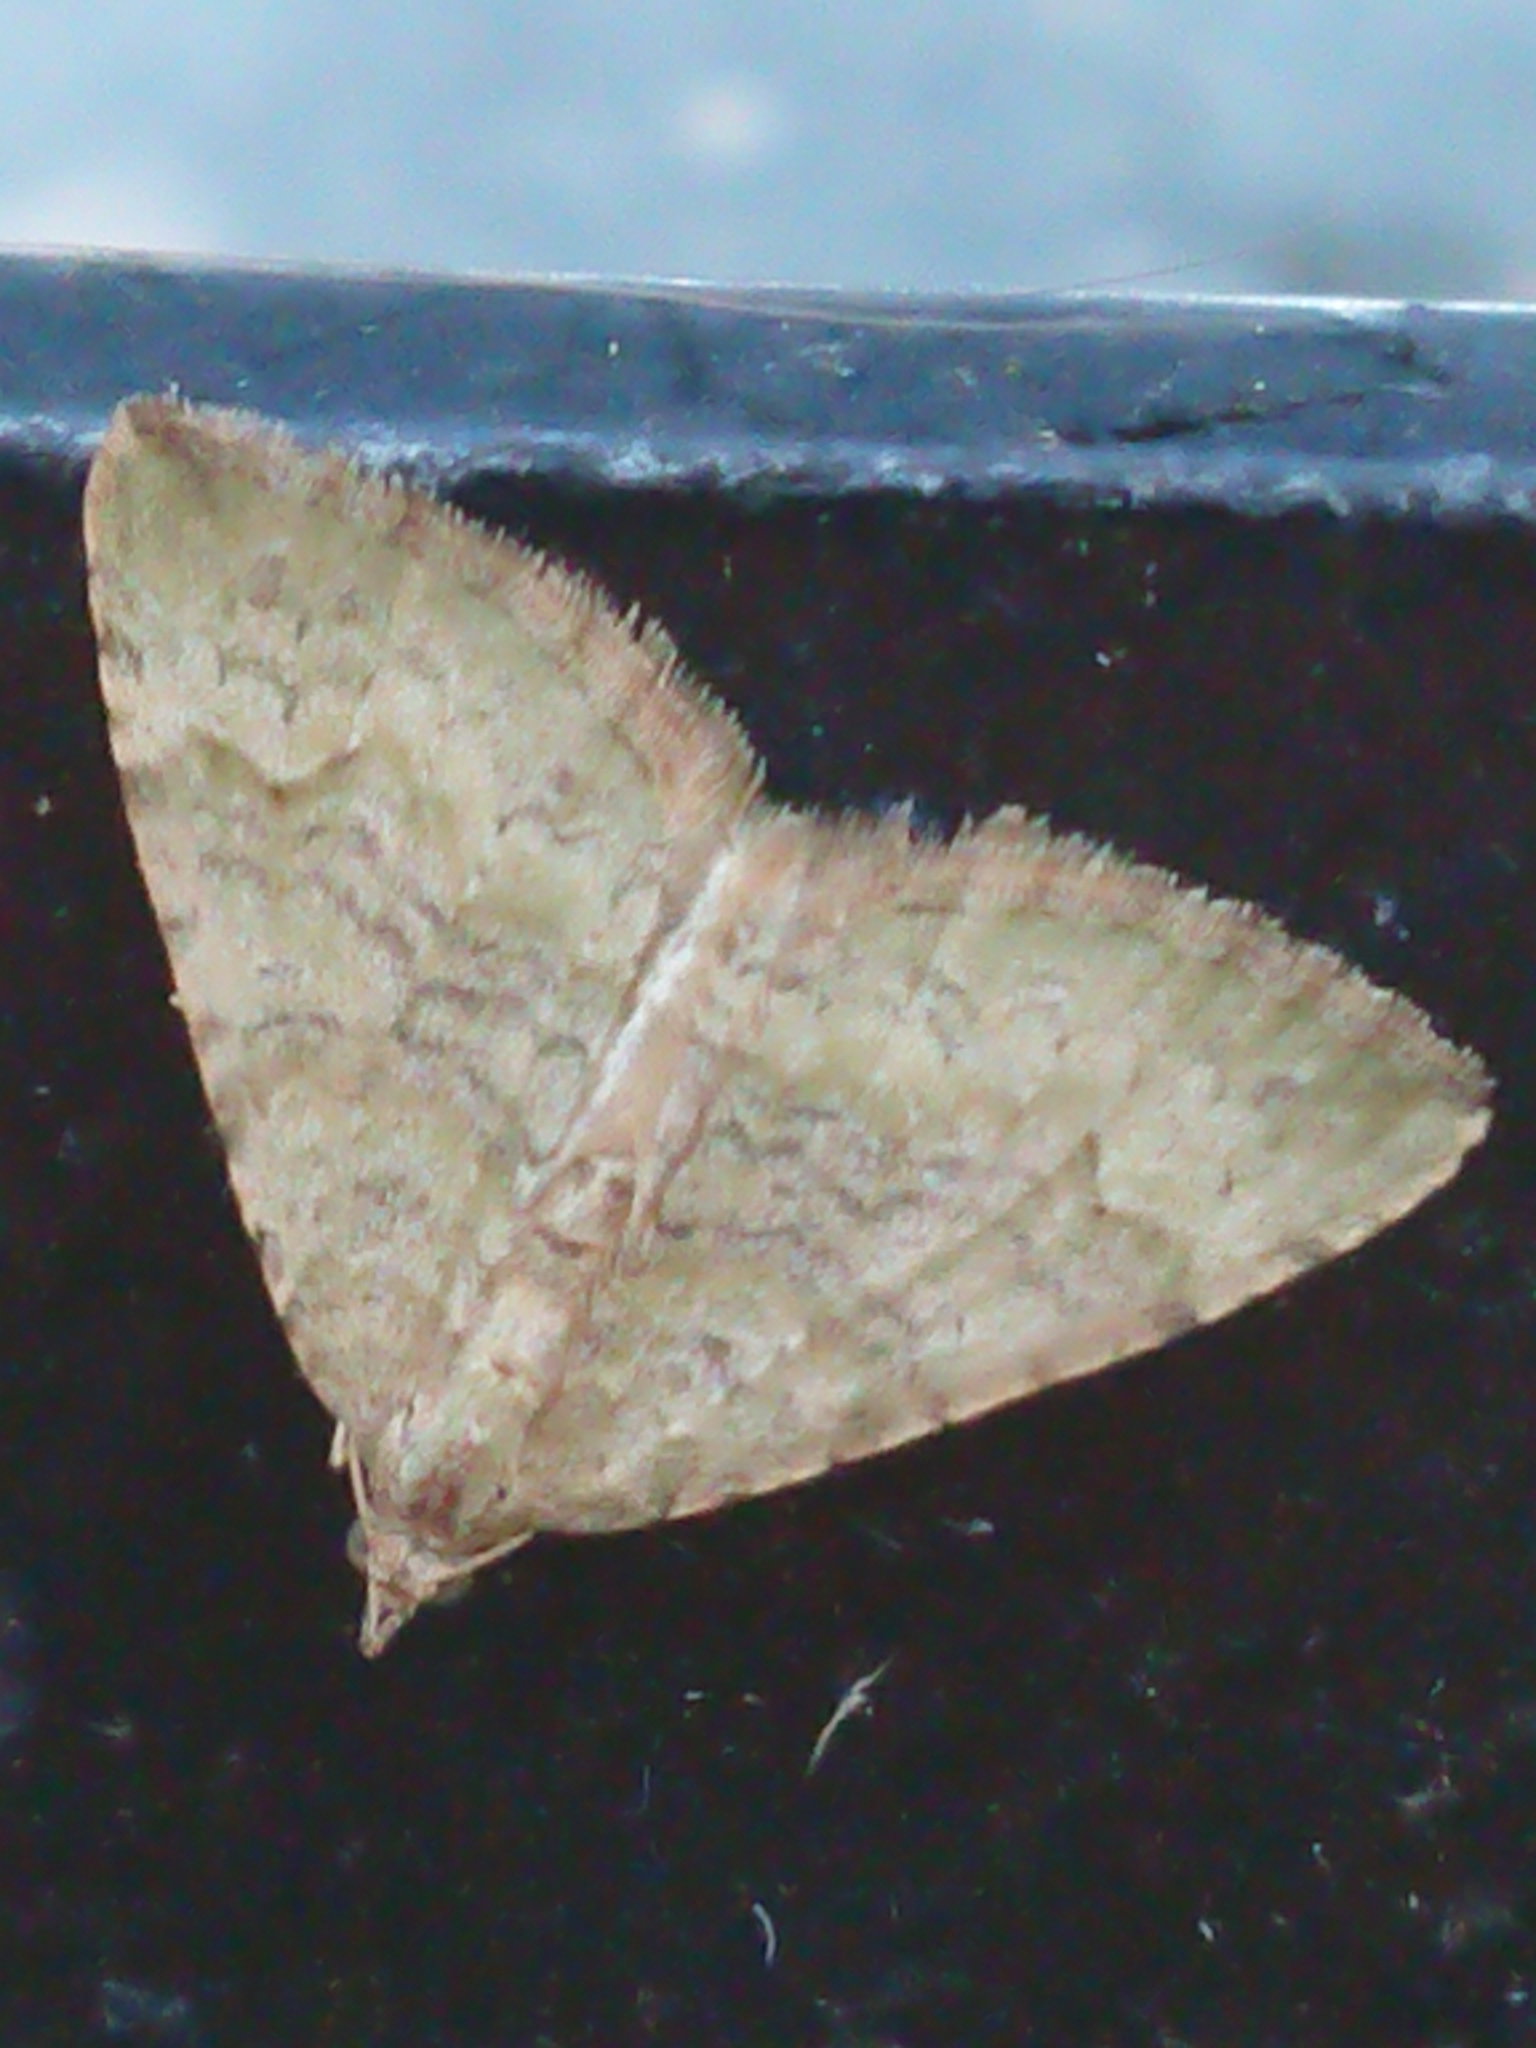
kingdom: Animalia
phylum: Arthropoda
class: Insecta
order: Lepidoptera
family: Geometridae
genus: Epyaxa
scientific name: Epyaxa rosearia
